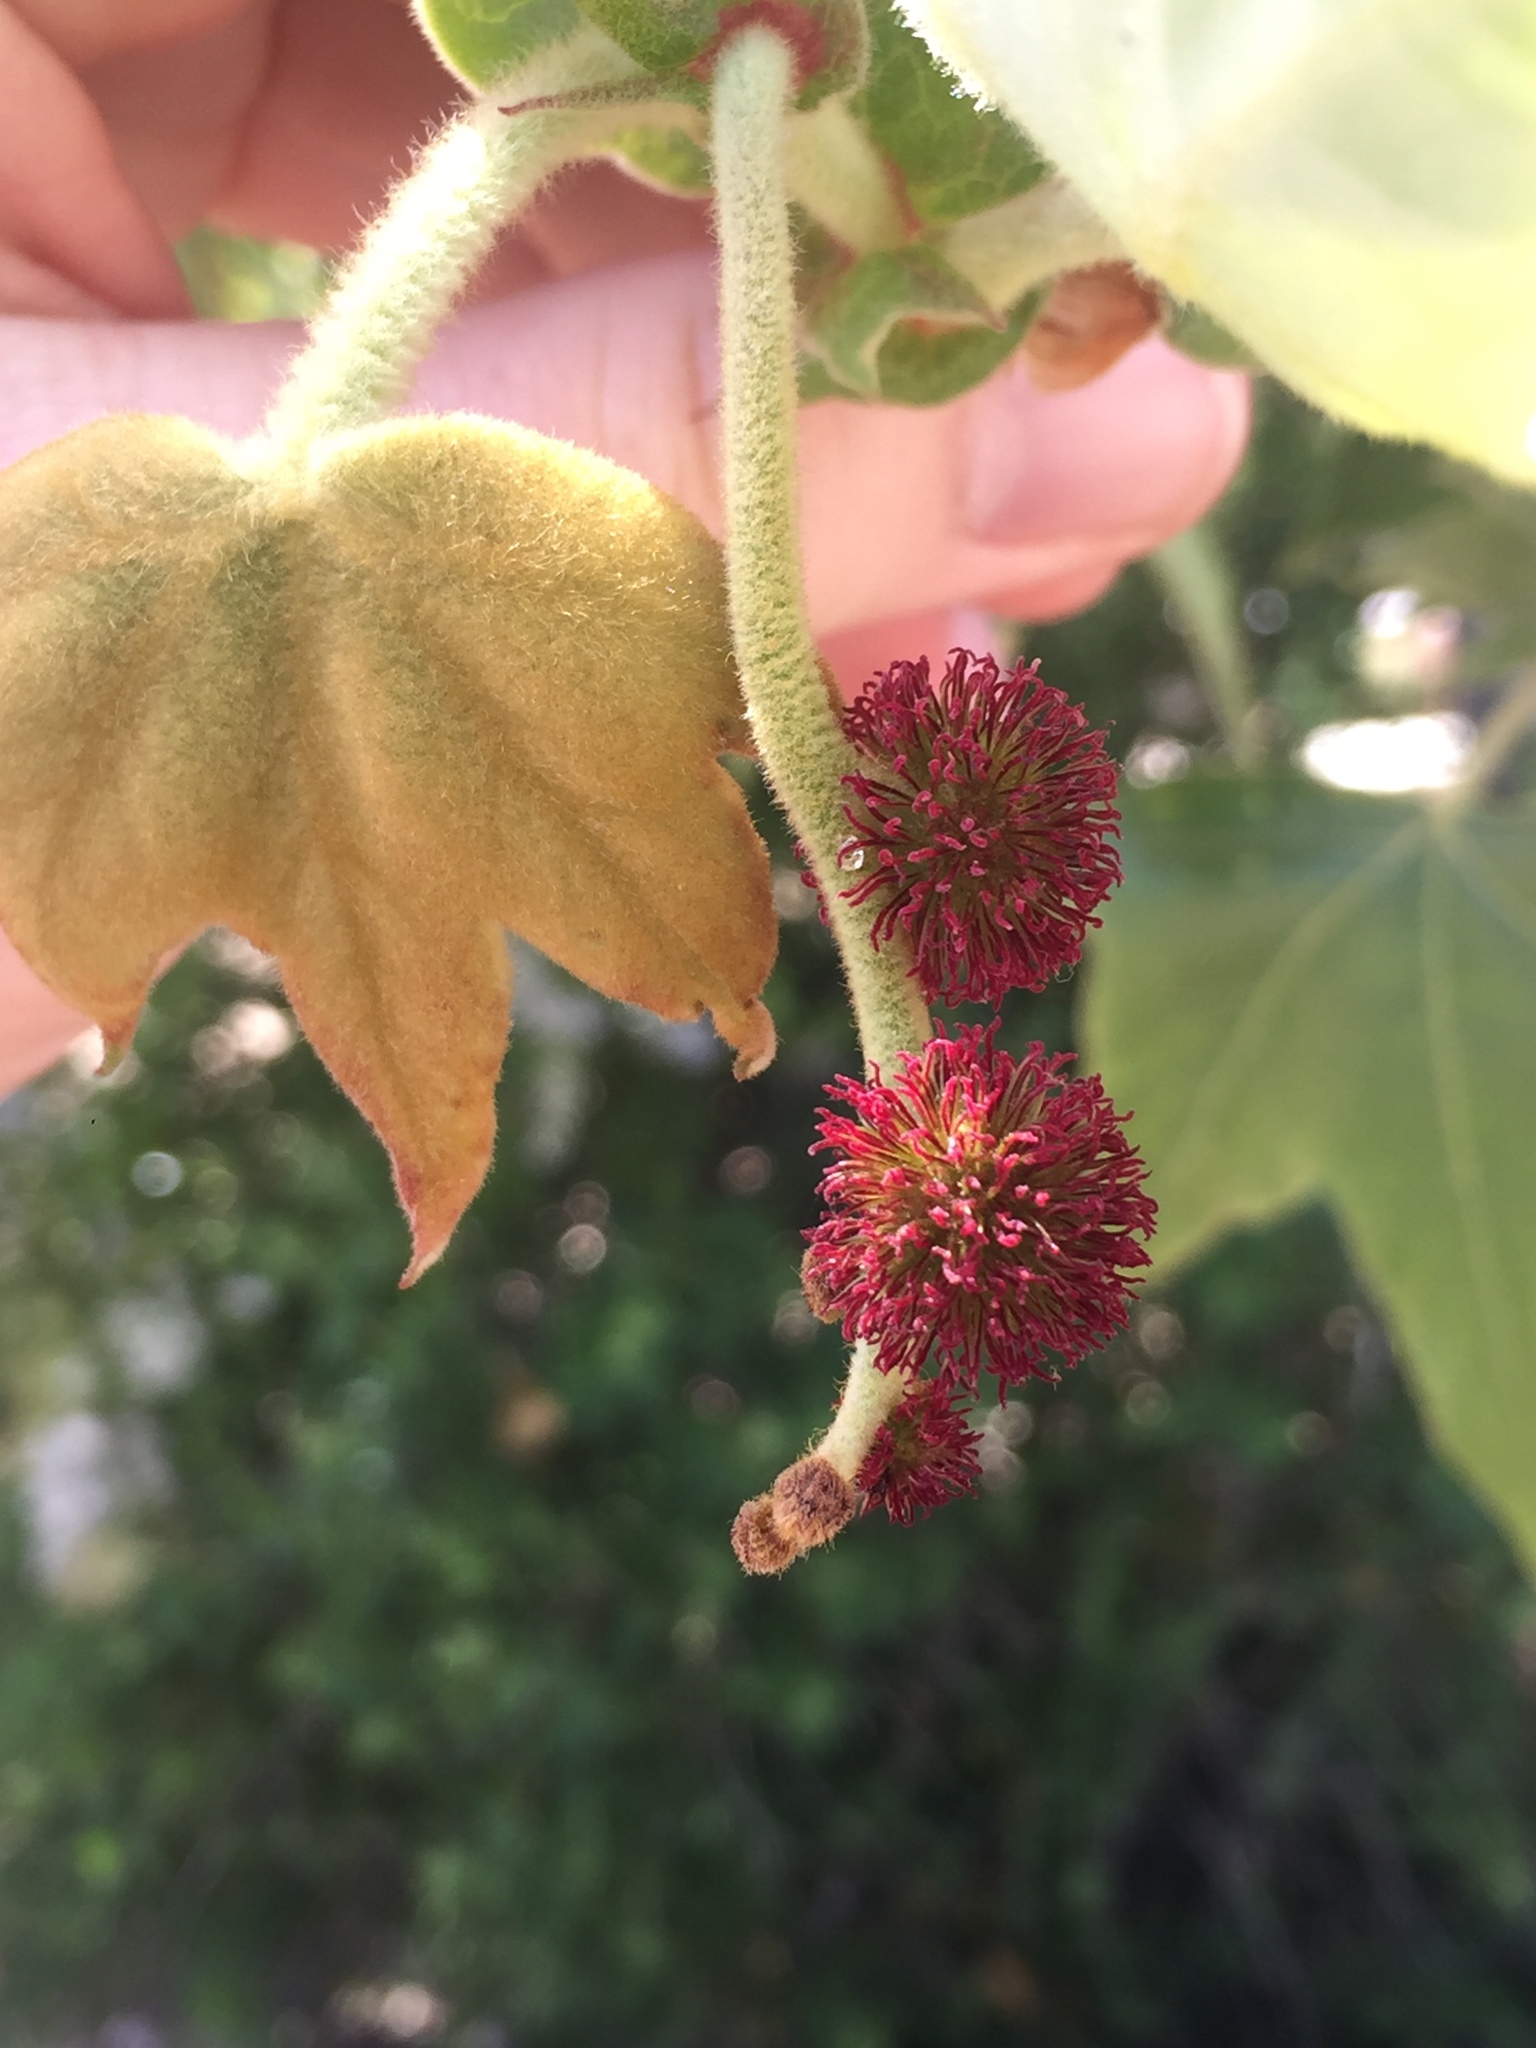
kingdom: Plantae
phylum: Tracheophyta
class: Magnoliopsida
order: Proteales
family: Platanaceae
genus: Platanus
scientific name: Platanus racemosa
